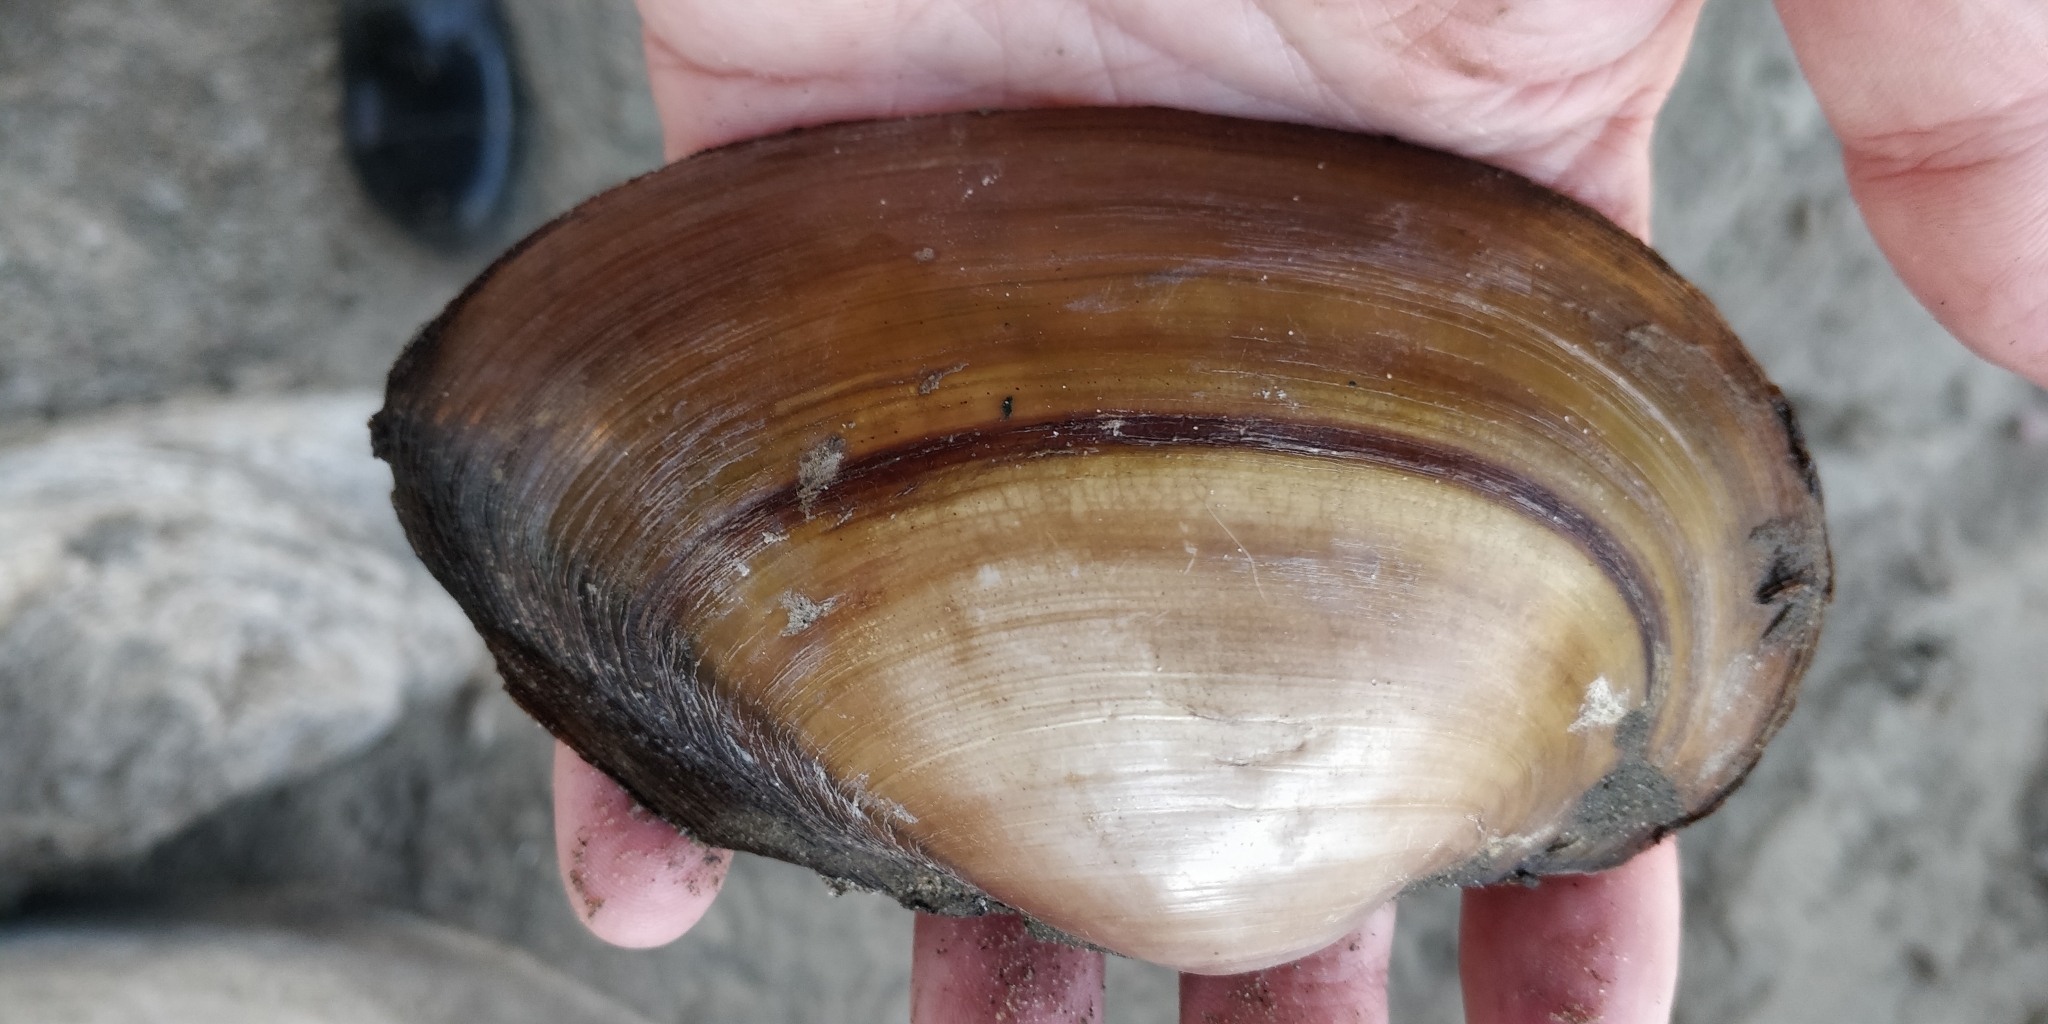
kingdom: Animalia
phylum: Mollusca
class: Bivalvia
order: Unionida
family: Unionidae
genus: Pyganodon
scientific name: Pyganodon grandis
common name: Giant floater
